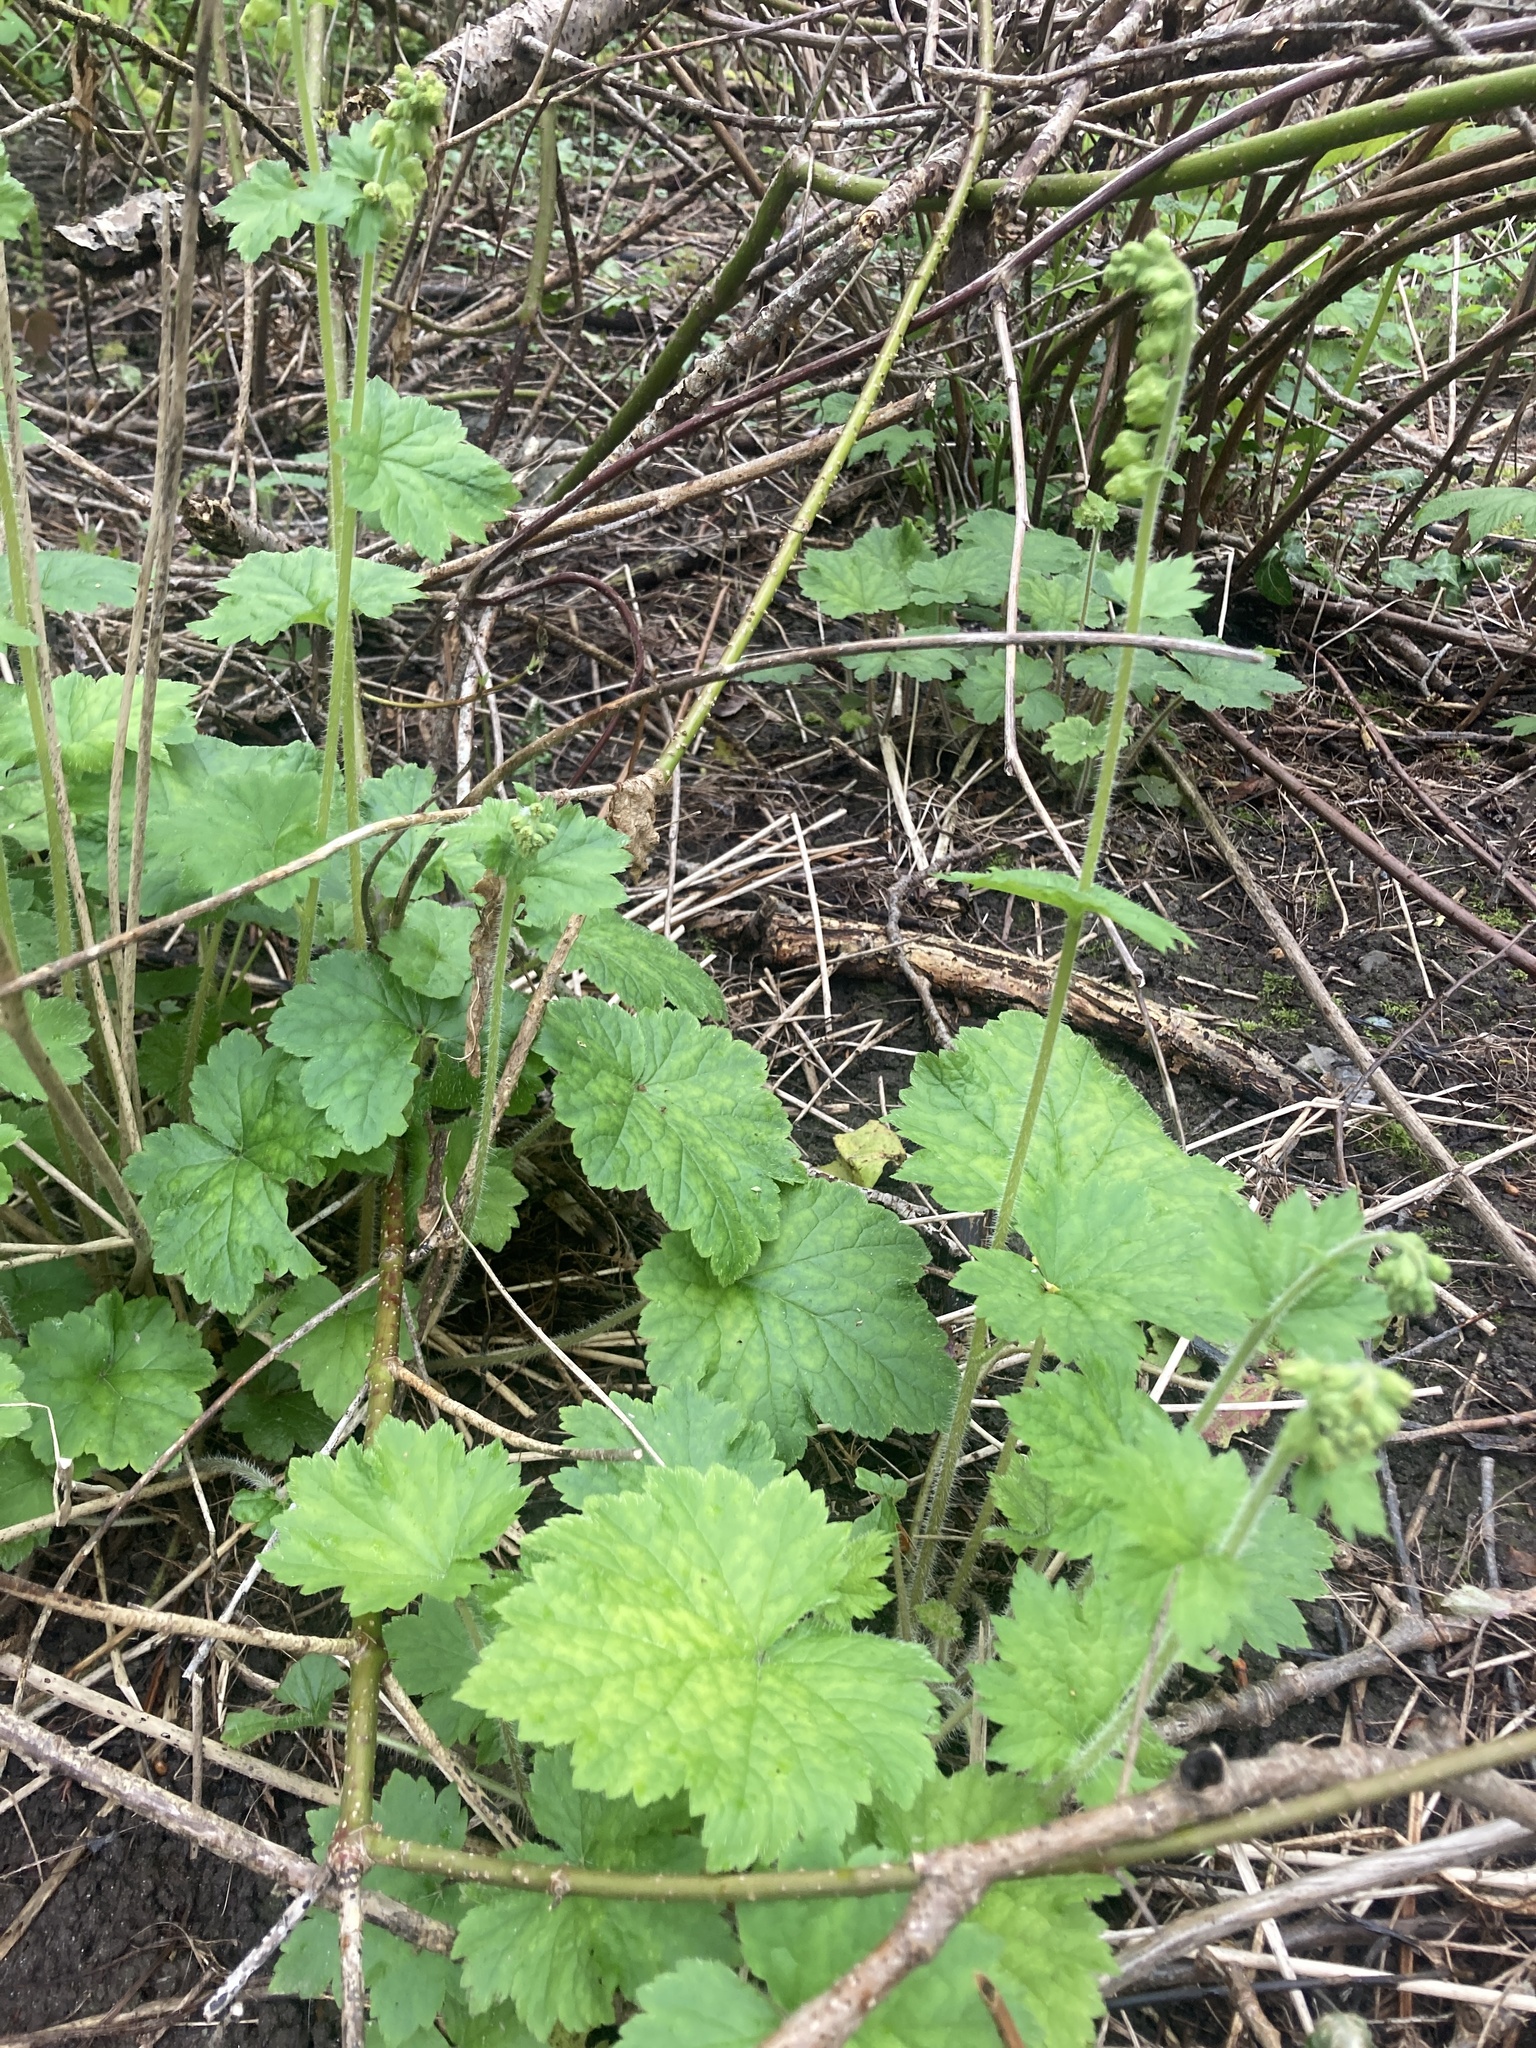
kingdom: Plantae
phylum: Tracheophyta
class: Magnoliopsida
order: Saxifragales
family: Saxifragaceae
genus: Tellima
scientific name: Tellima grandiflora
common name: Fringecups
